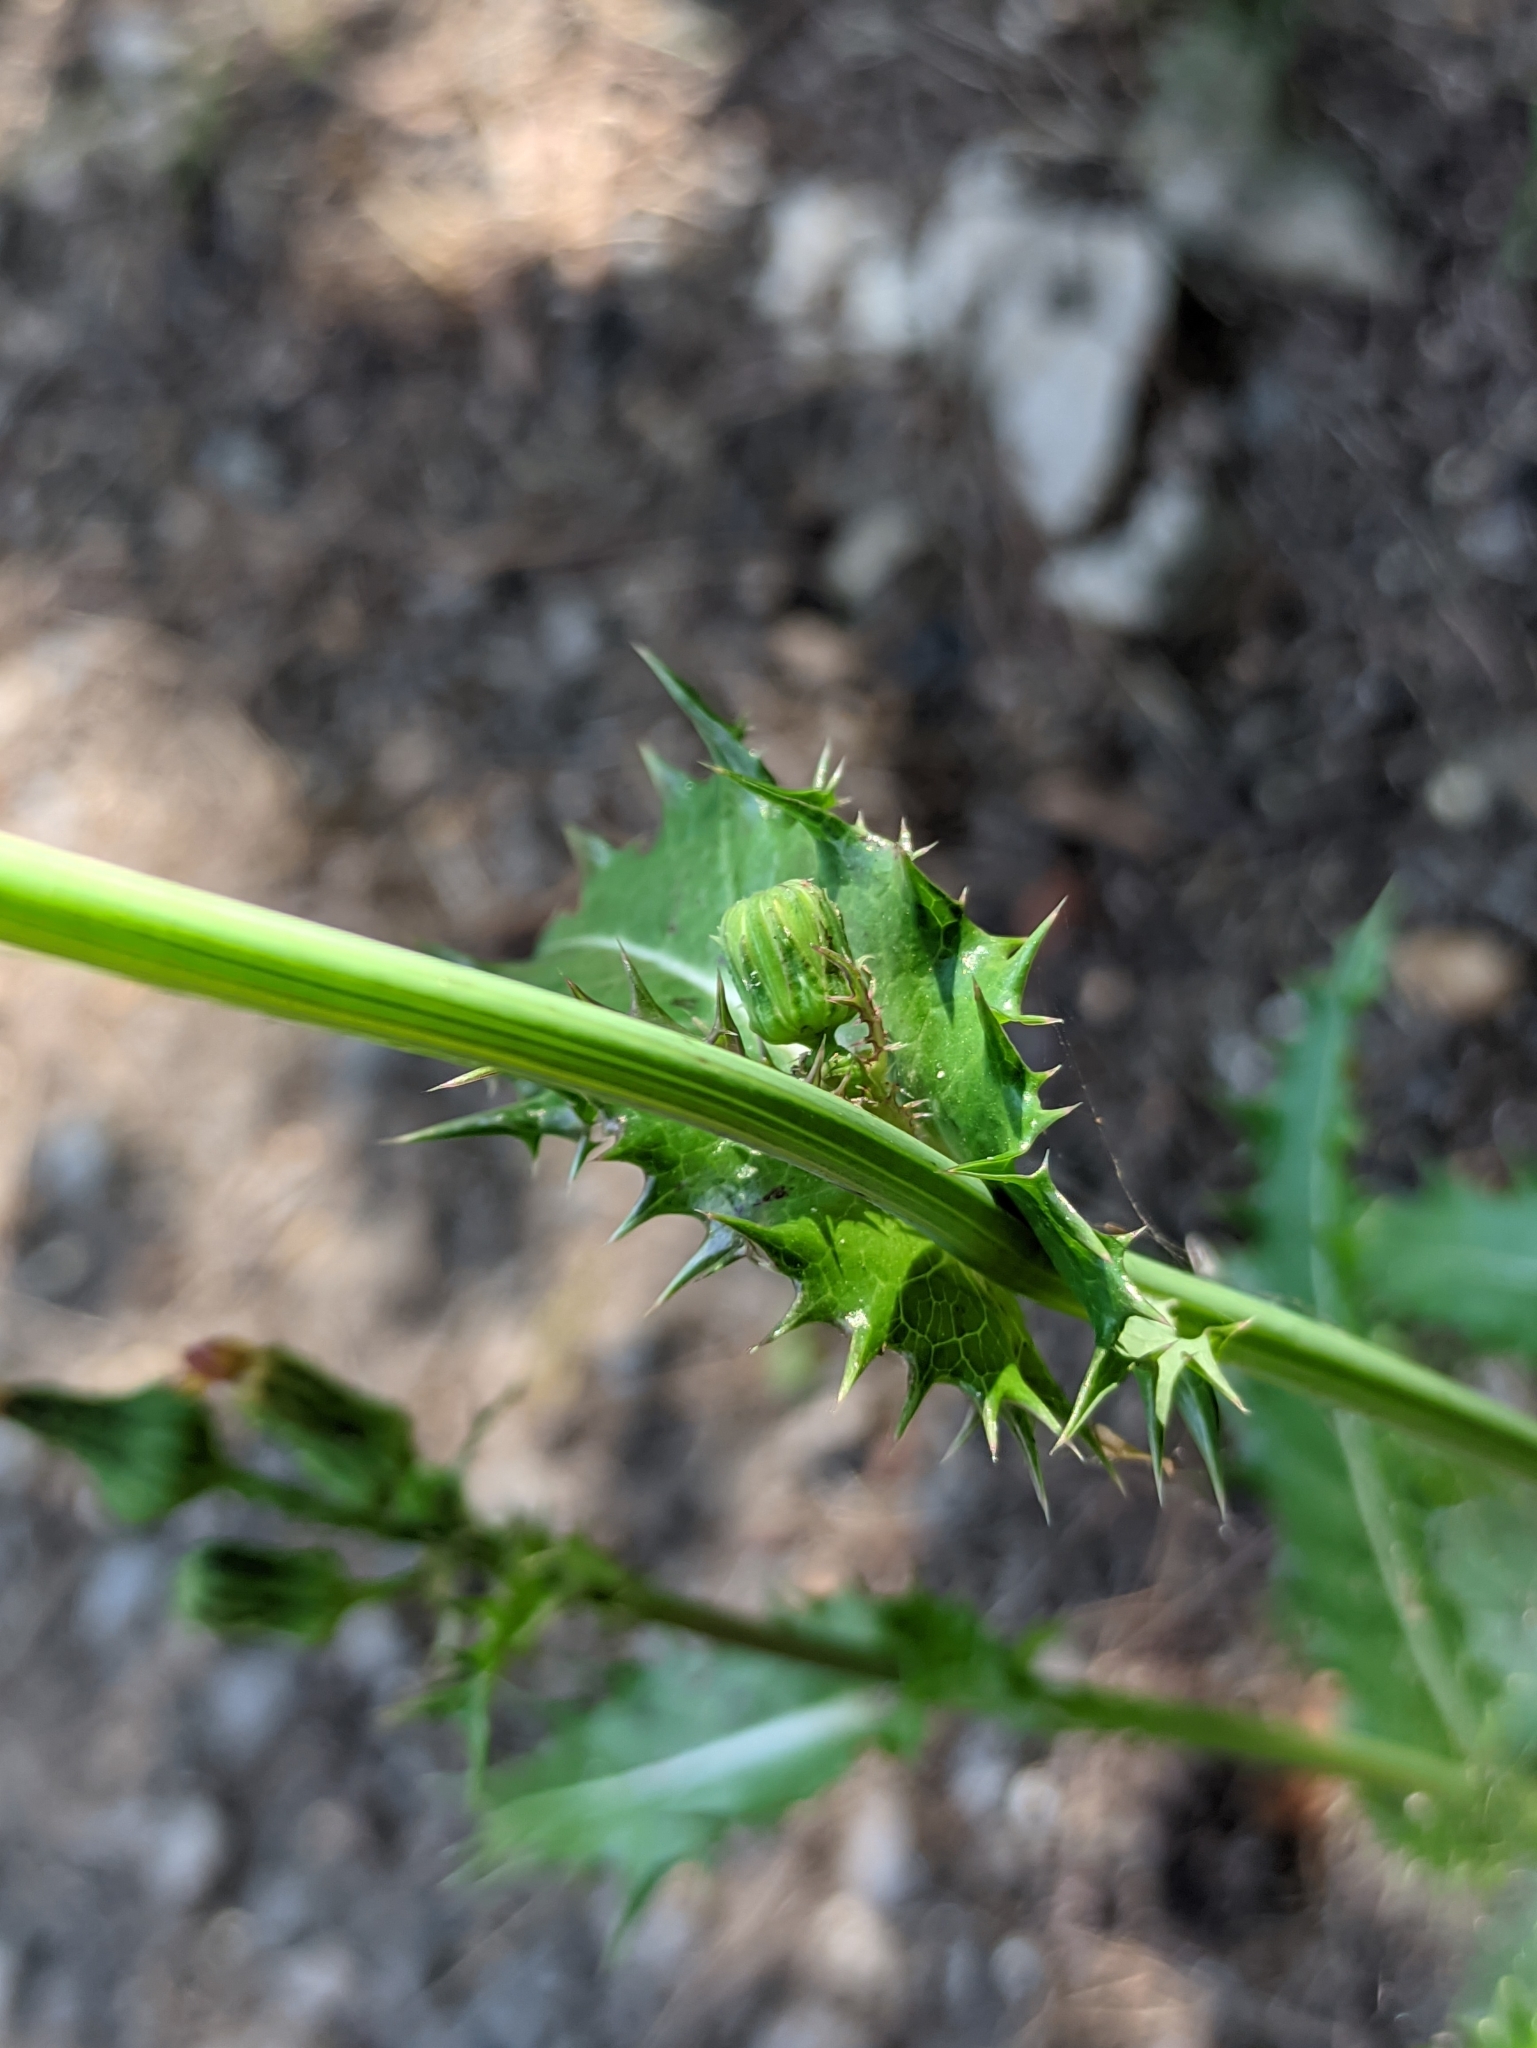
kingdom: Plantae
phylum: Tracheophyta
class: Magnoliopsida
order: Asterales
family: Asteraceae
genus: Sonchus
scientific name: Sonchus asper
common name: Prickly sow-thistle
